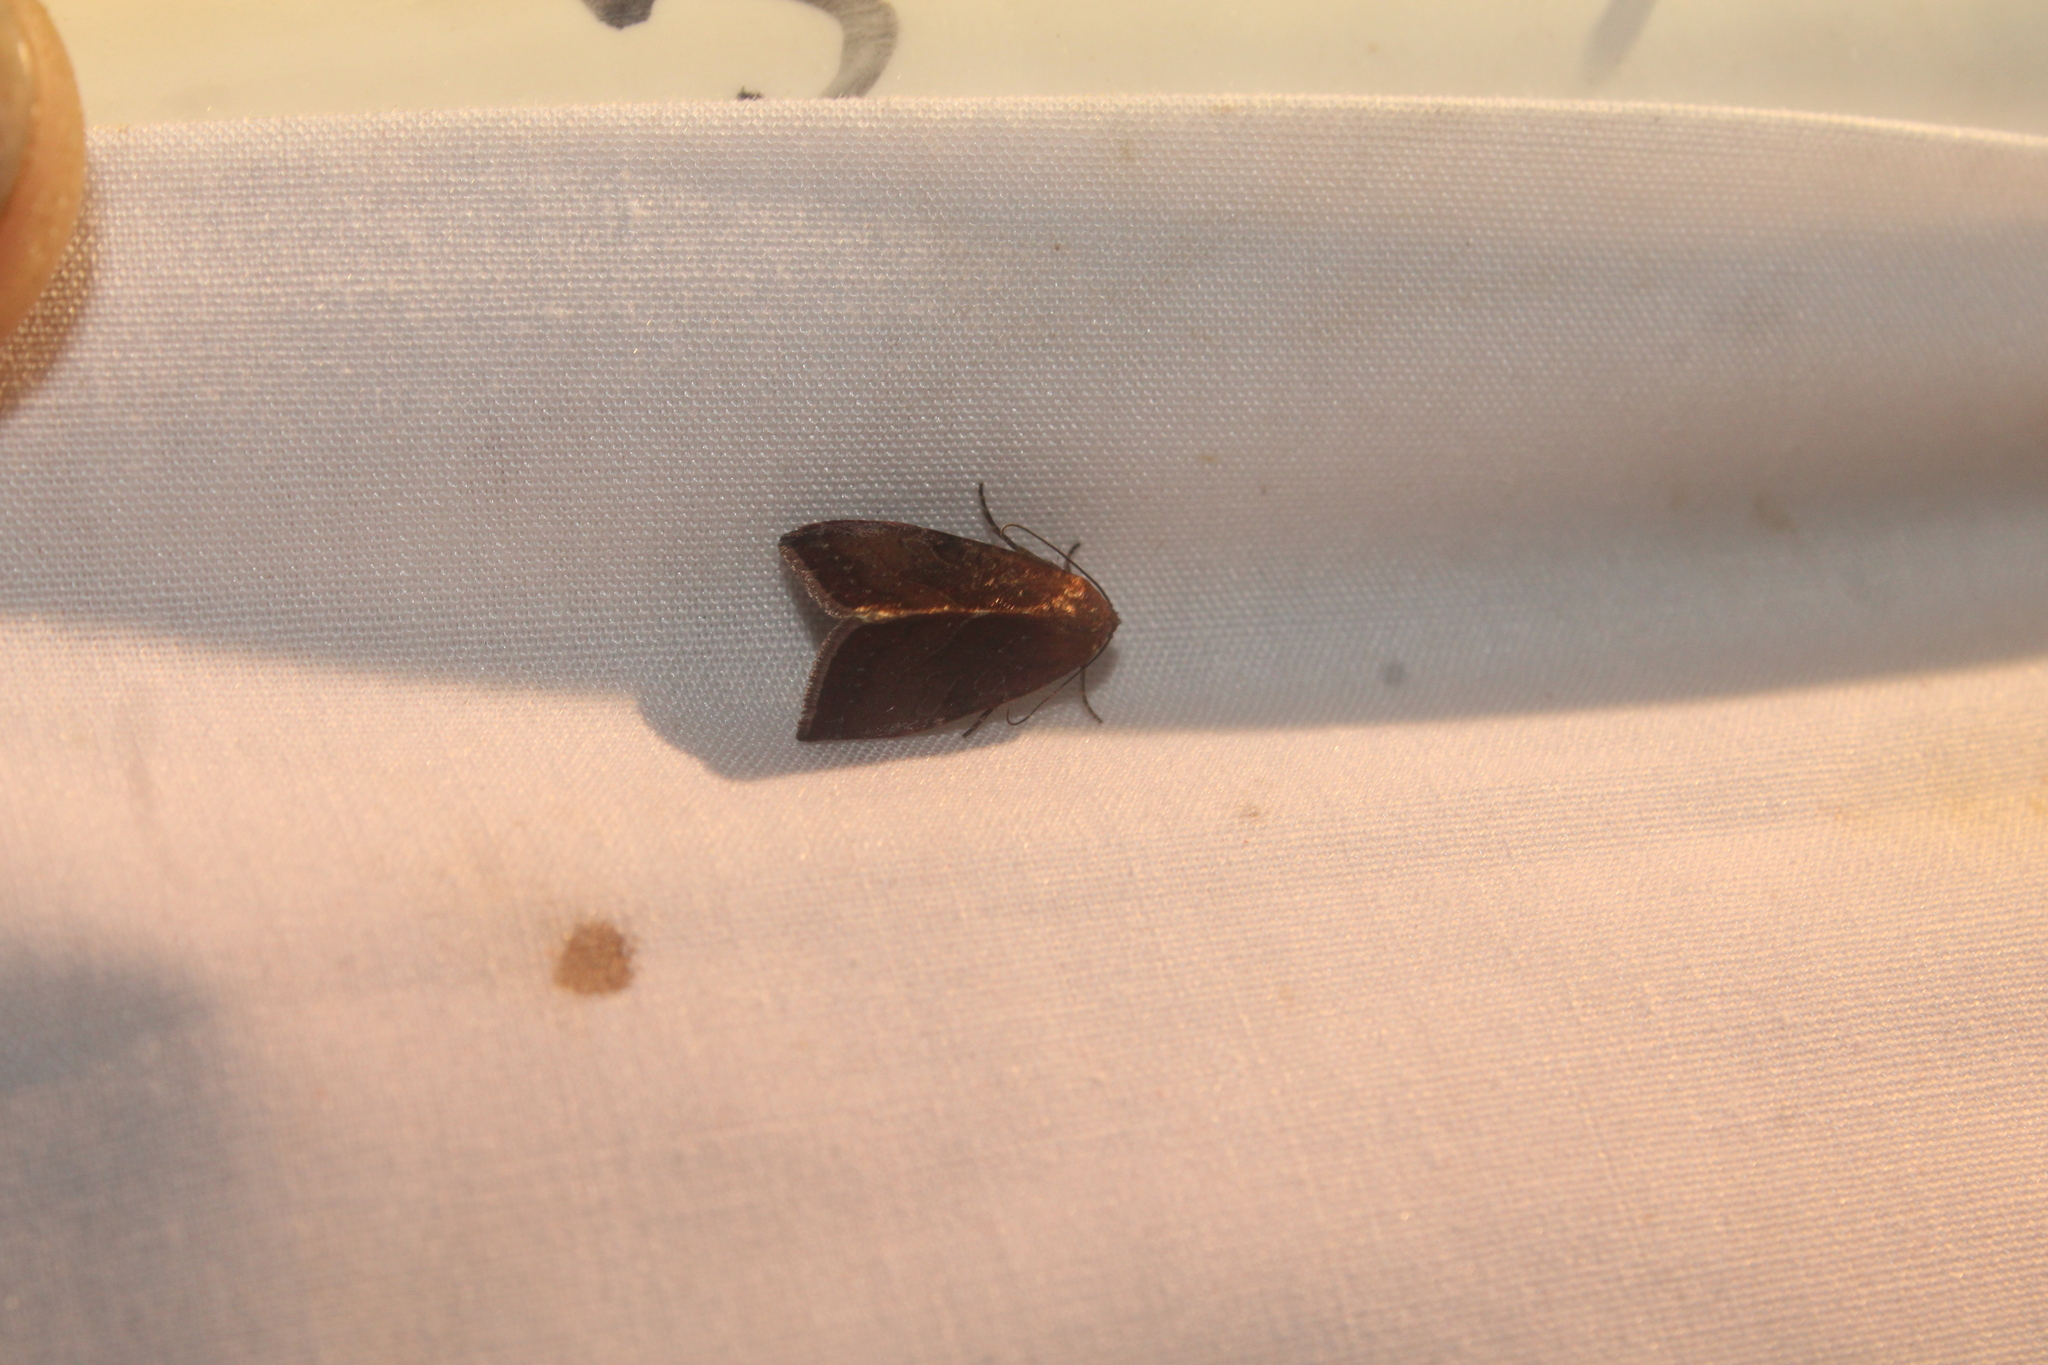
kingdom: Animalia
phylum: Arthropoda
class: Insecta
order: Lepidoptera
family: Noctuidae
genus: Galgula
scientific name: Galgula partita
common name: Wedgeling
